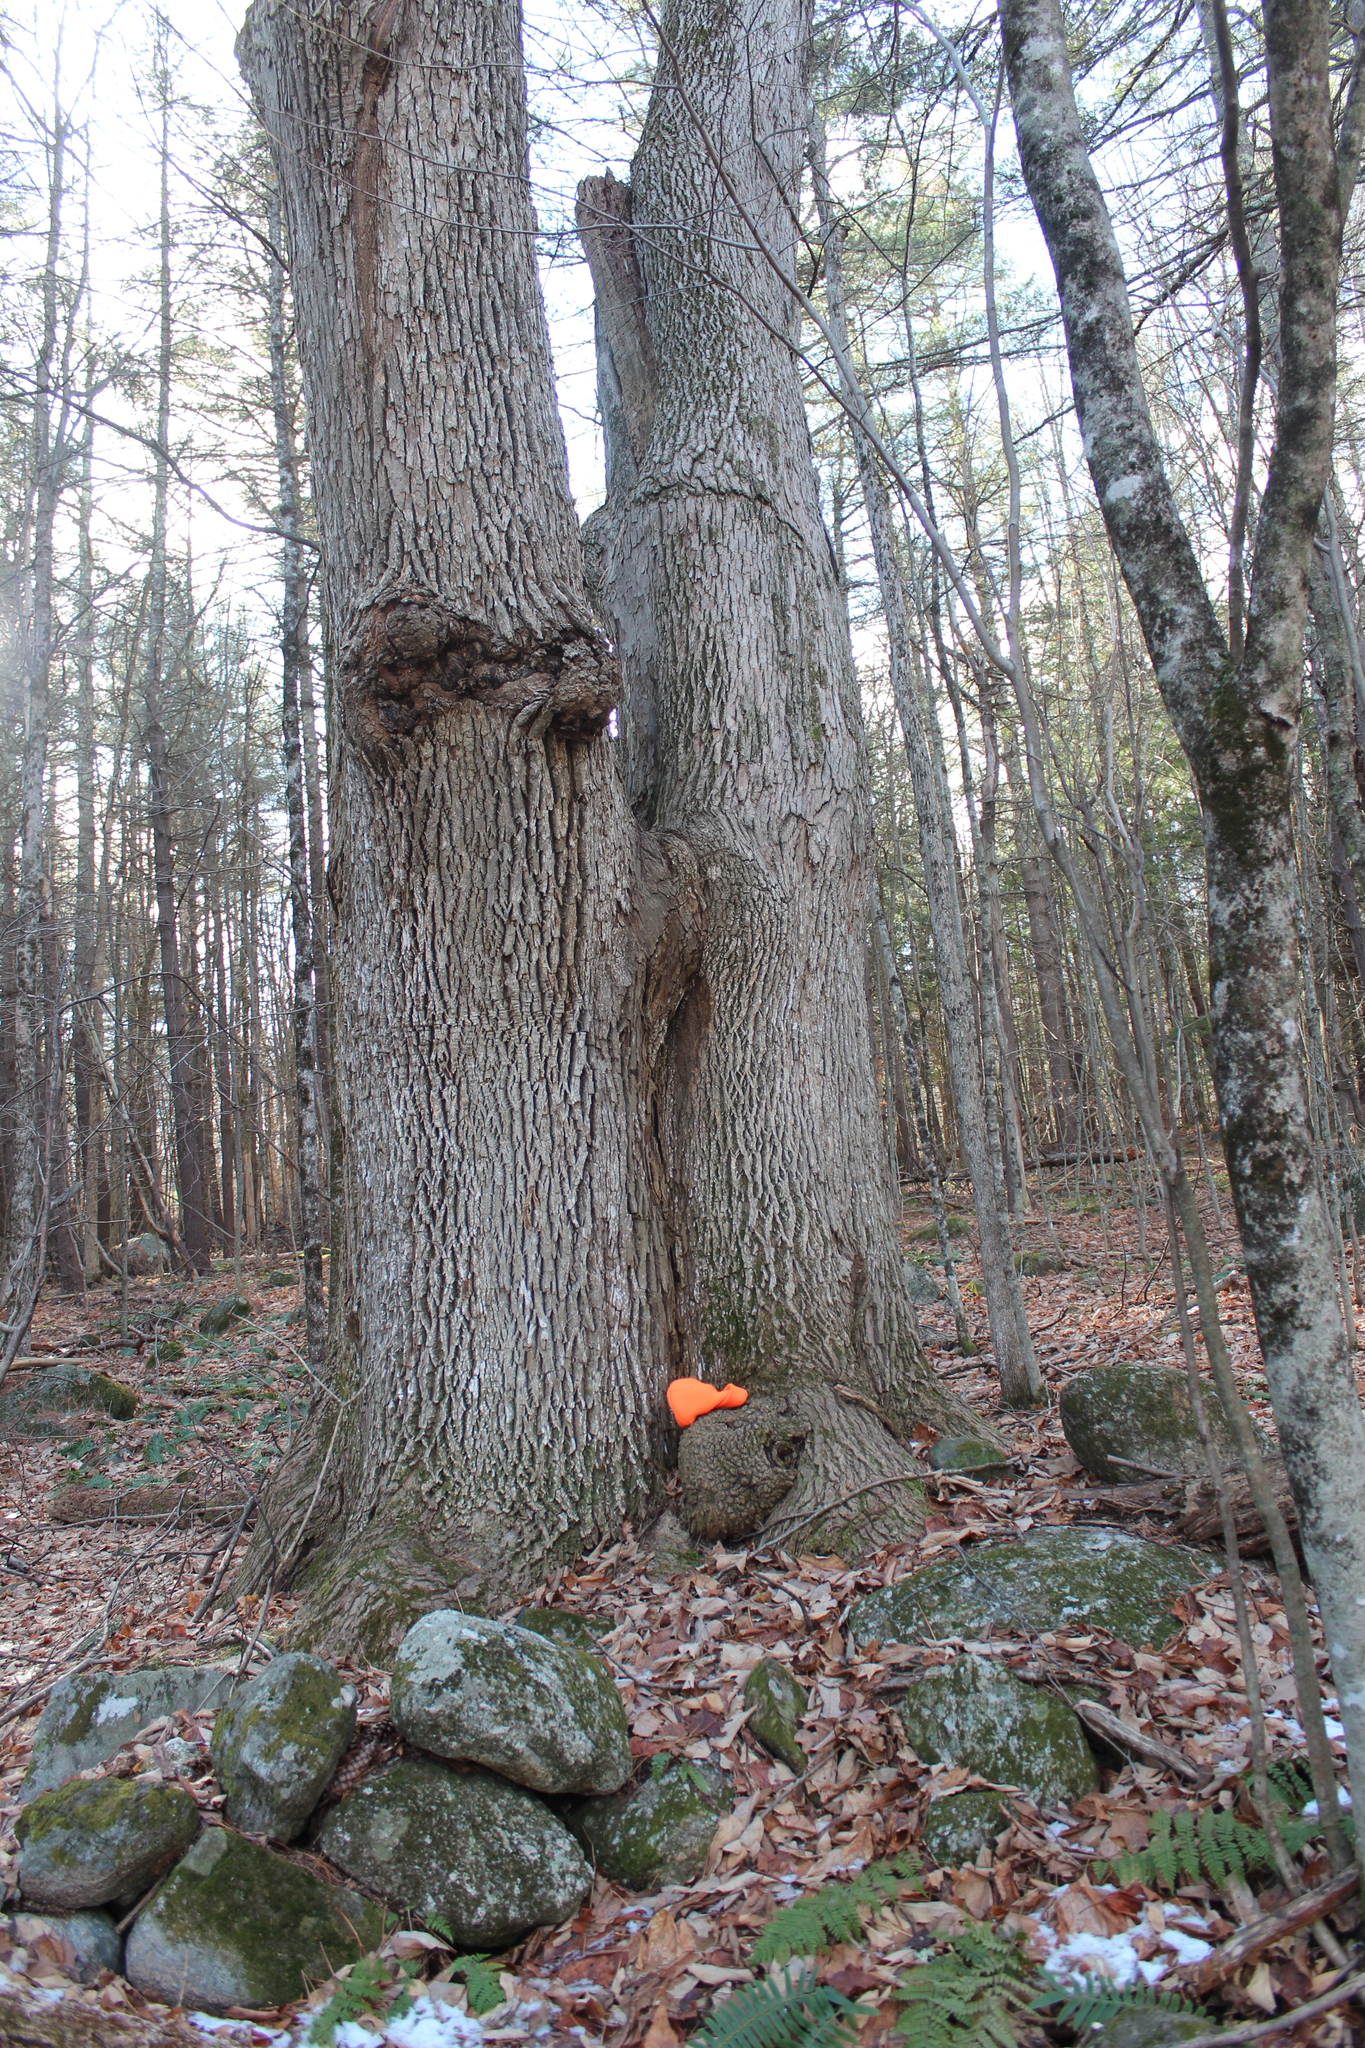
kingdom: Plantae
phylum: Tracheophyta
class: Magnoliopsida
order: Lamiales
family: Oleaceae
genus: Fraxinus
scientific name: Fraxinus americana
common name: White ash
